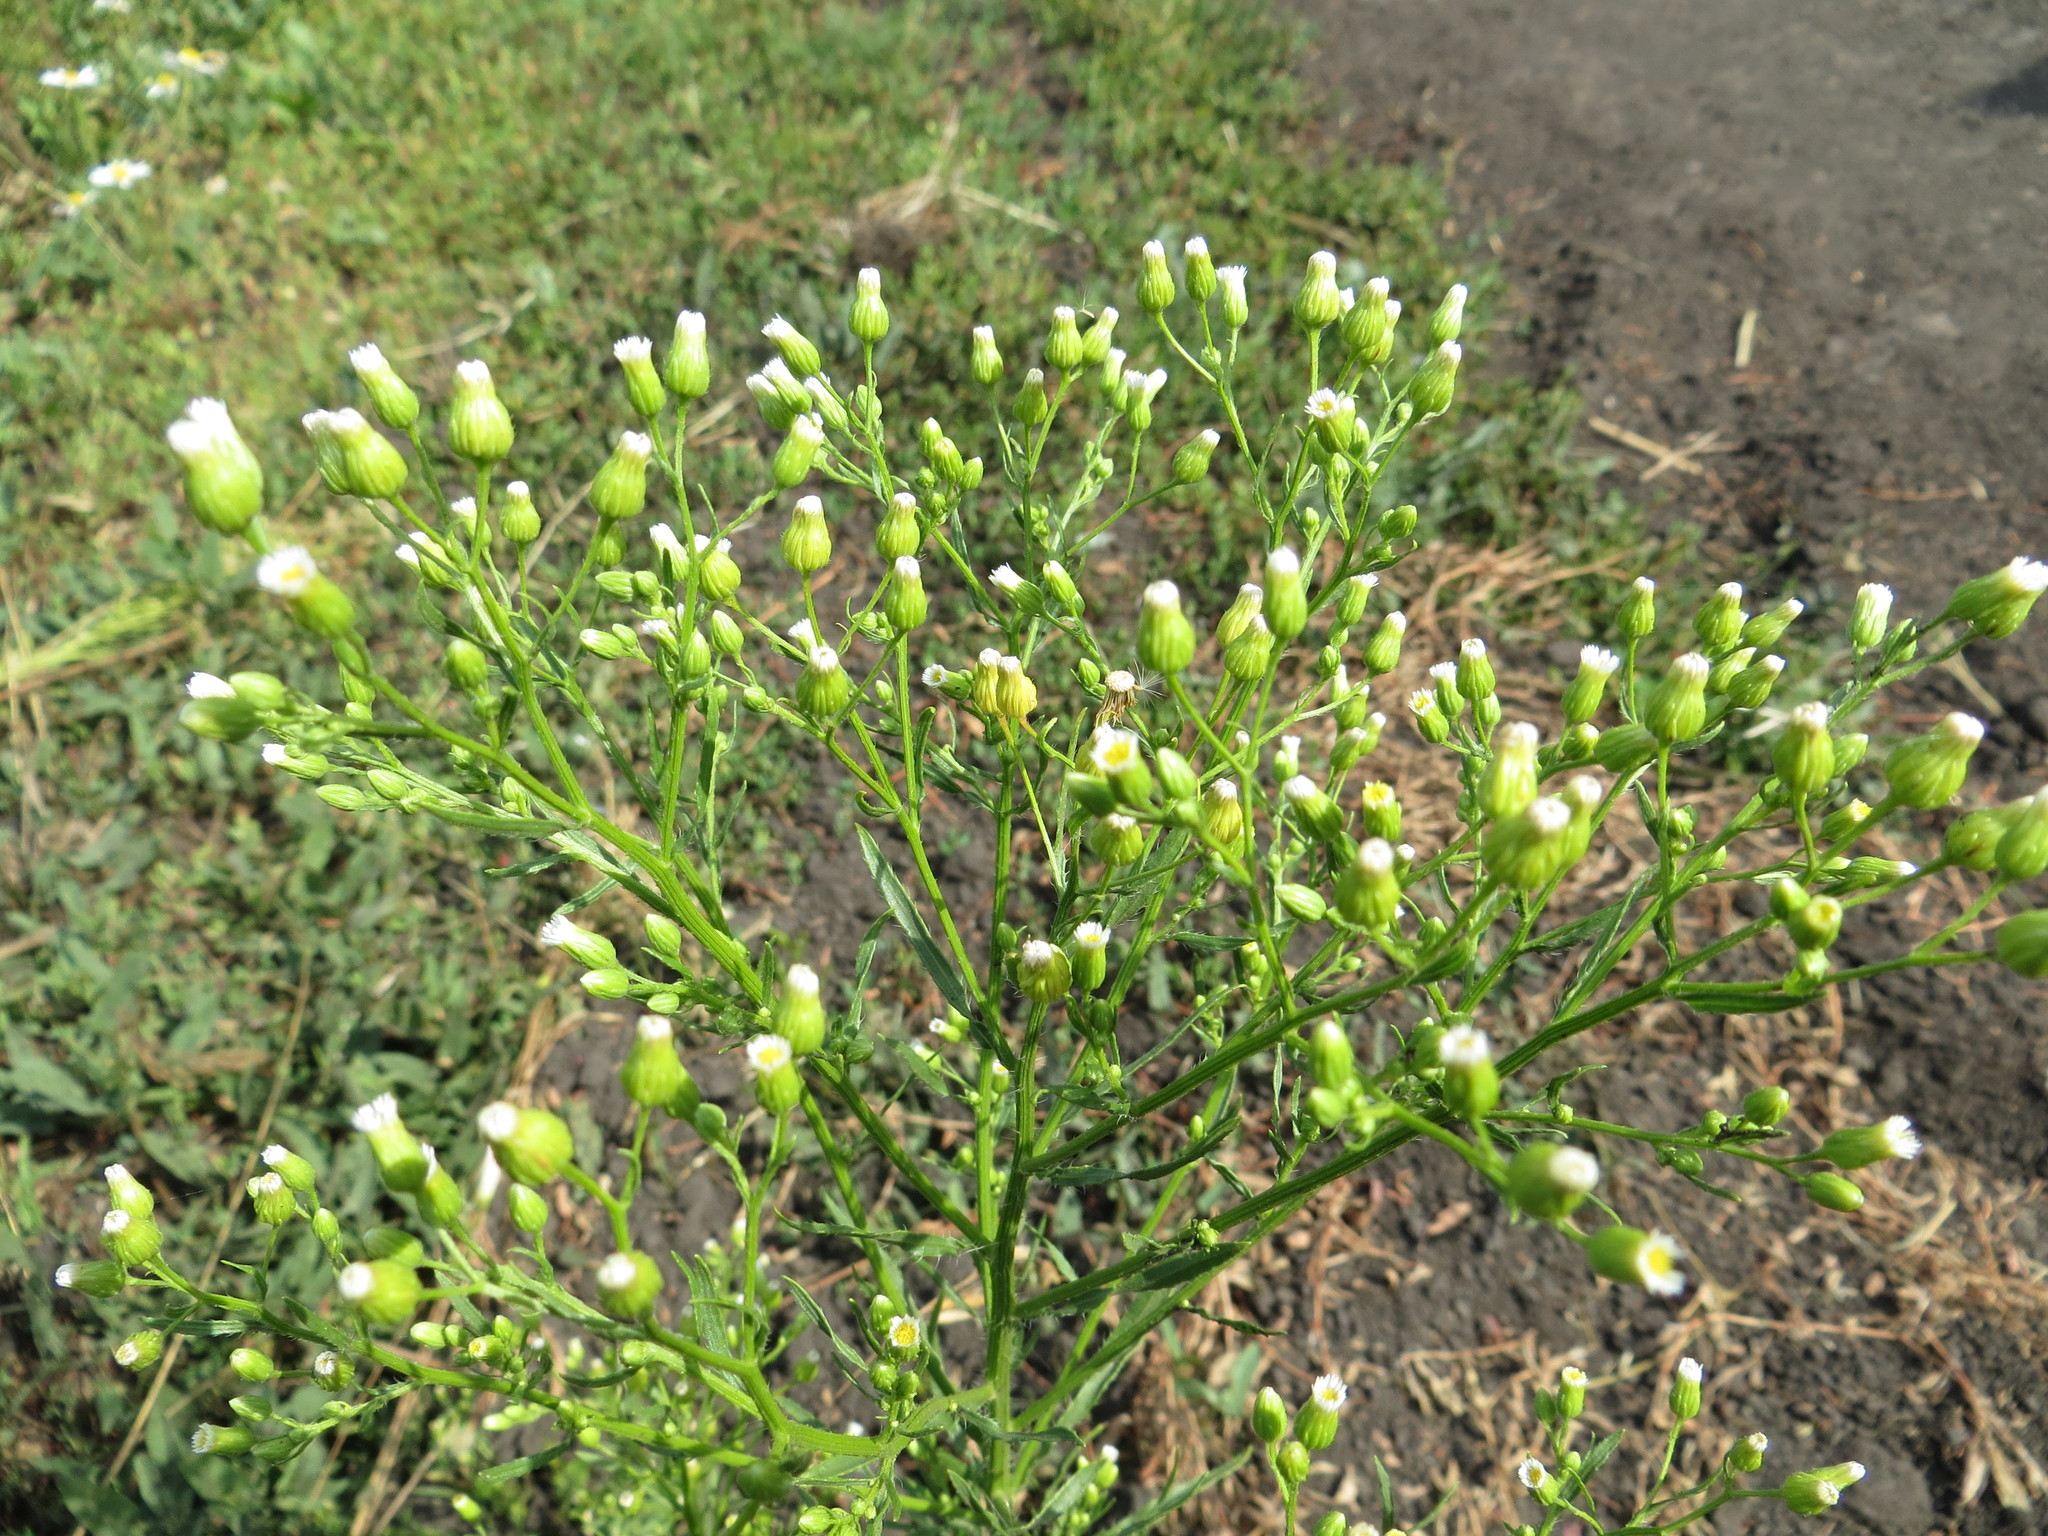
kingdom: Plantae
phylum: Tracheophyta
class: Magnoliopsida
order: Asterales
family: Asteraceae
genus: Erigeron
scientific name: Erigeron canadensis
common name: Canadian fleabane
